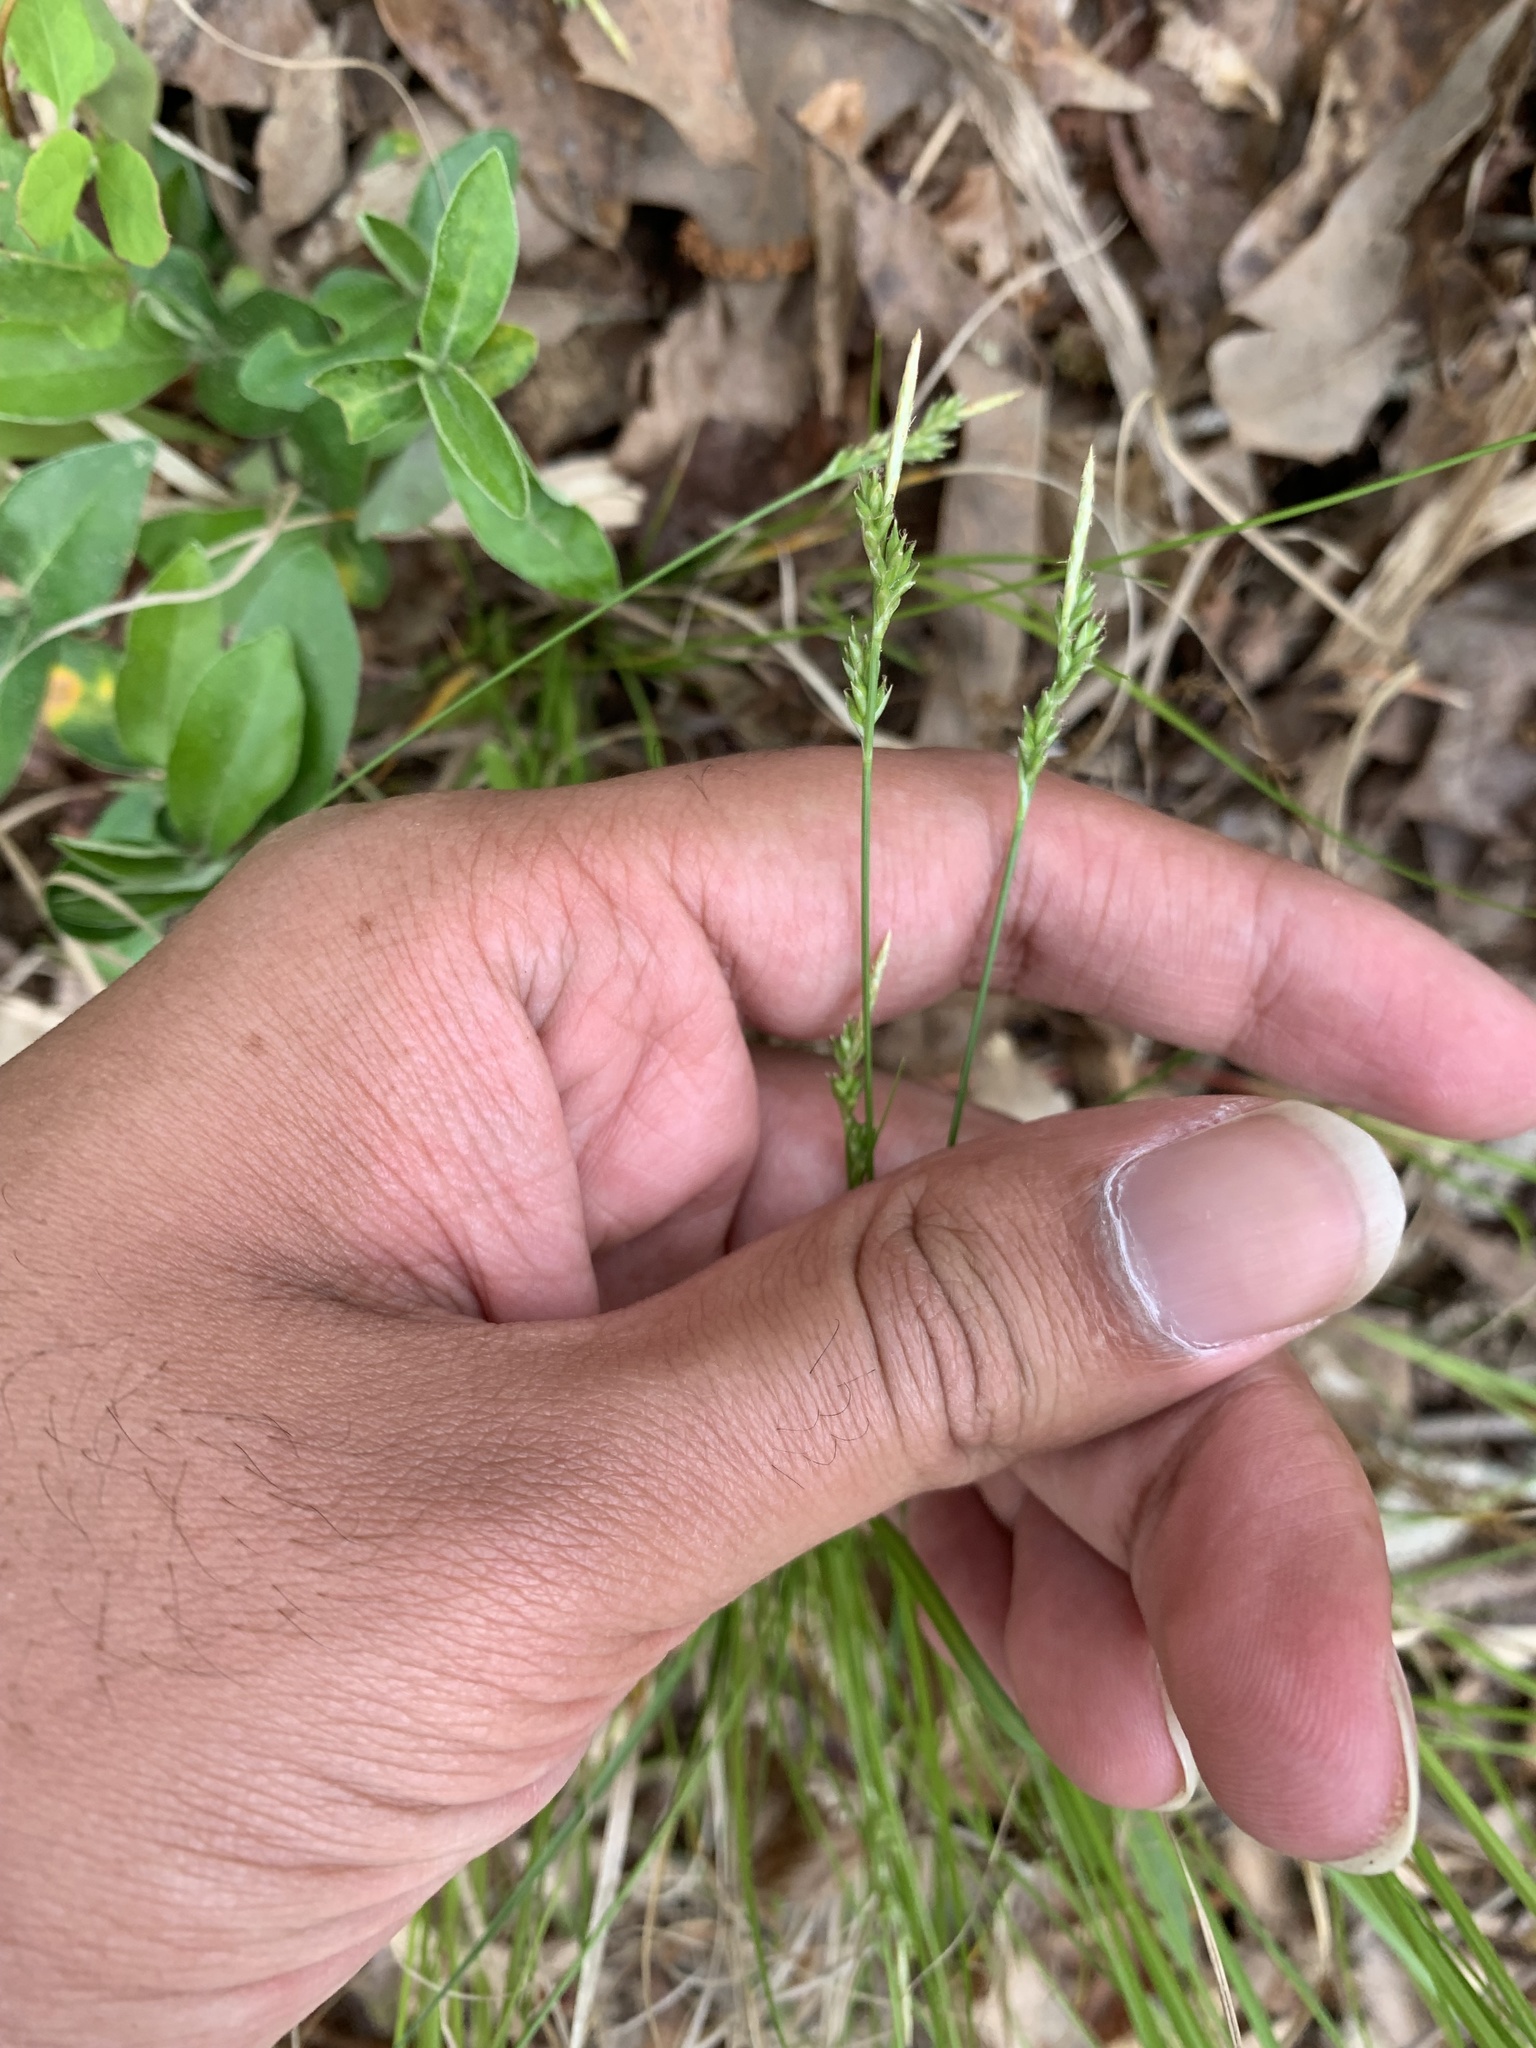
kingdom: Plantae
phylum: Tracheophyta
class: Liliopsida
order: Poales
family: Cyperaceae
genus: Carex
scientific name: Carex albicans
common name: Bellow-beaked sedge
